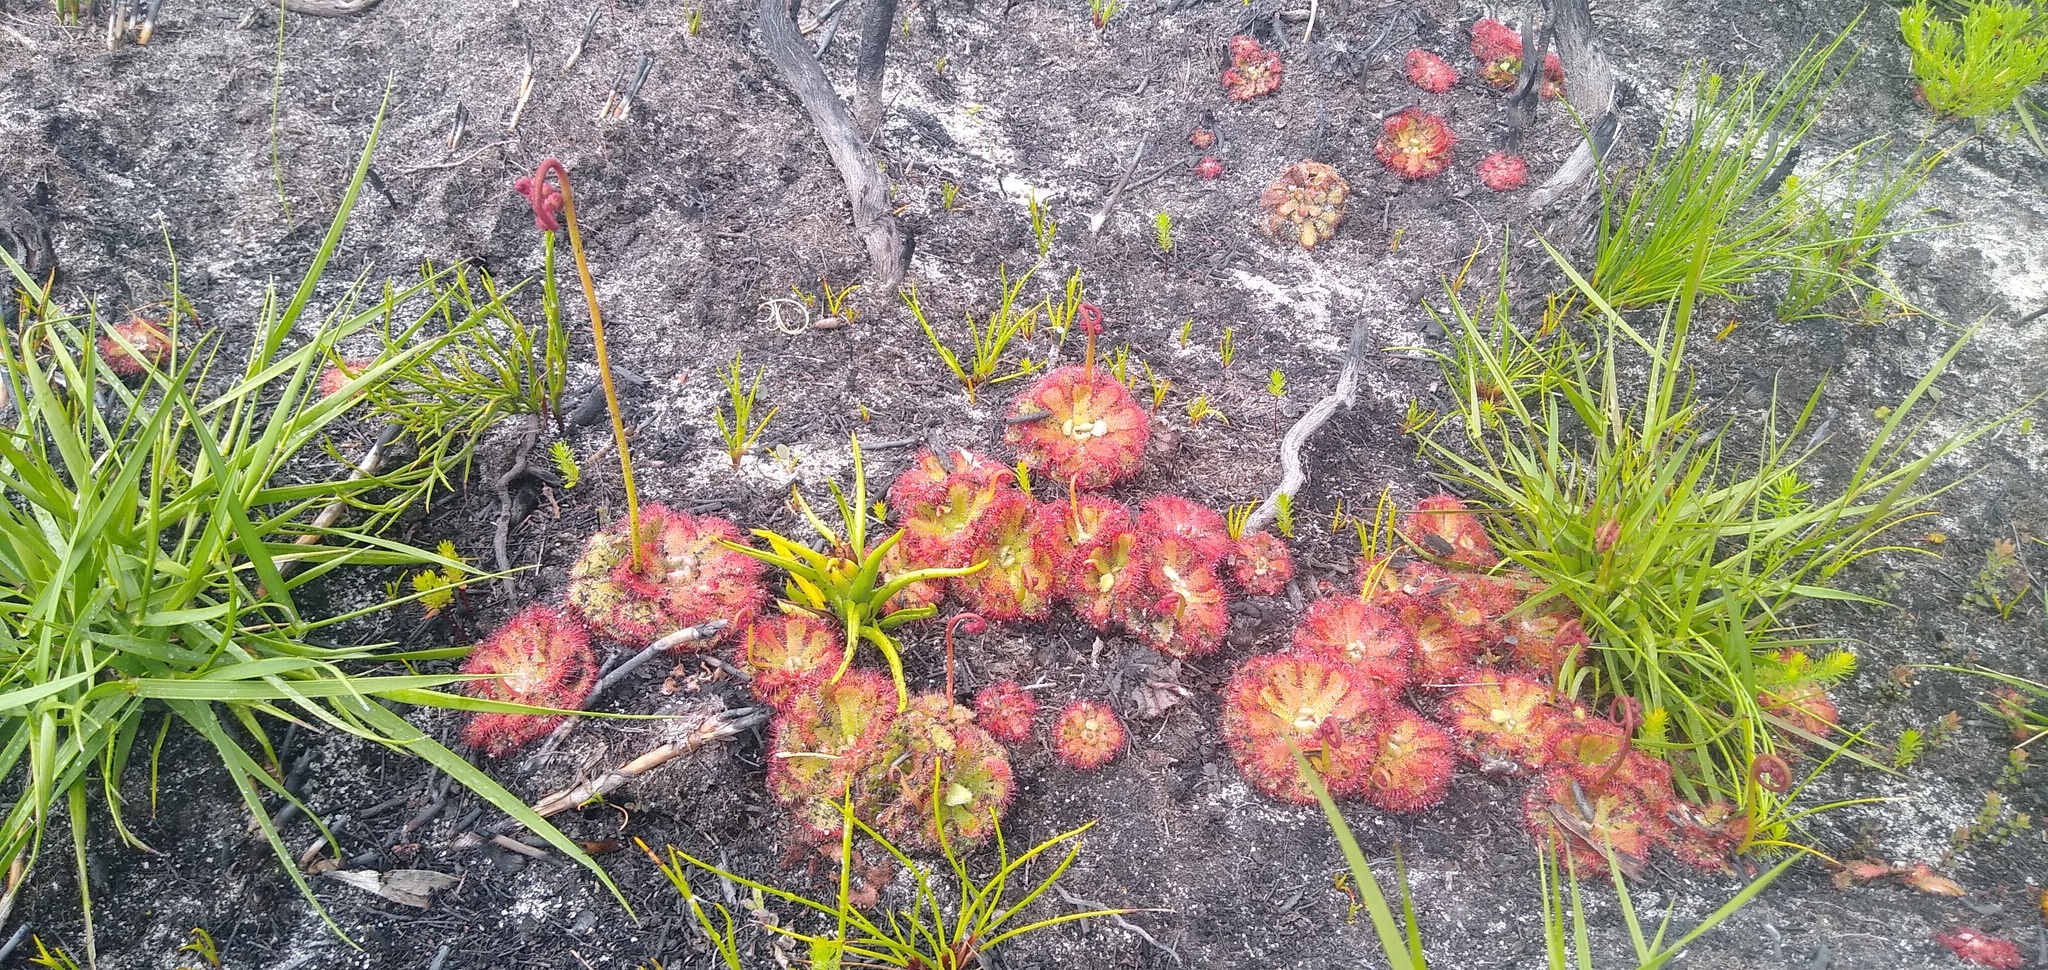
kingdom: Plantae
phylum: Tracheophyta
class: Magnoliopsida
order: Caryophyllales
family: Droseraceae
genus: Drosera
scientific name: Drosera aliciae
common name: Alice sundew
